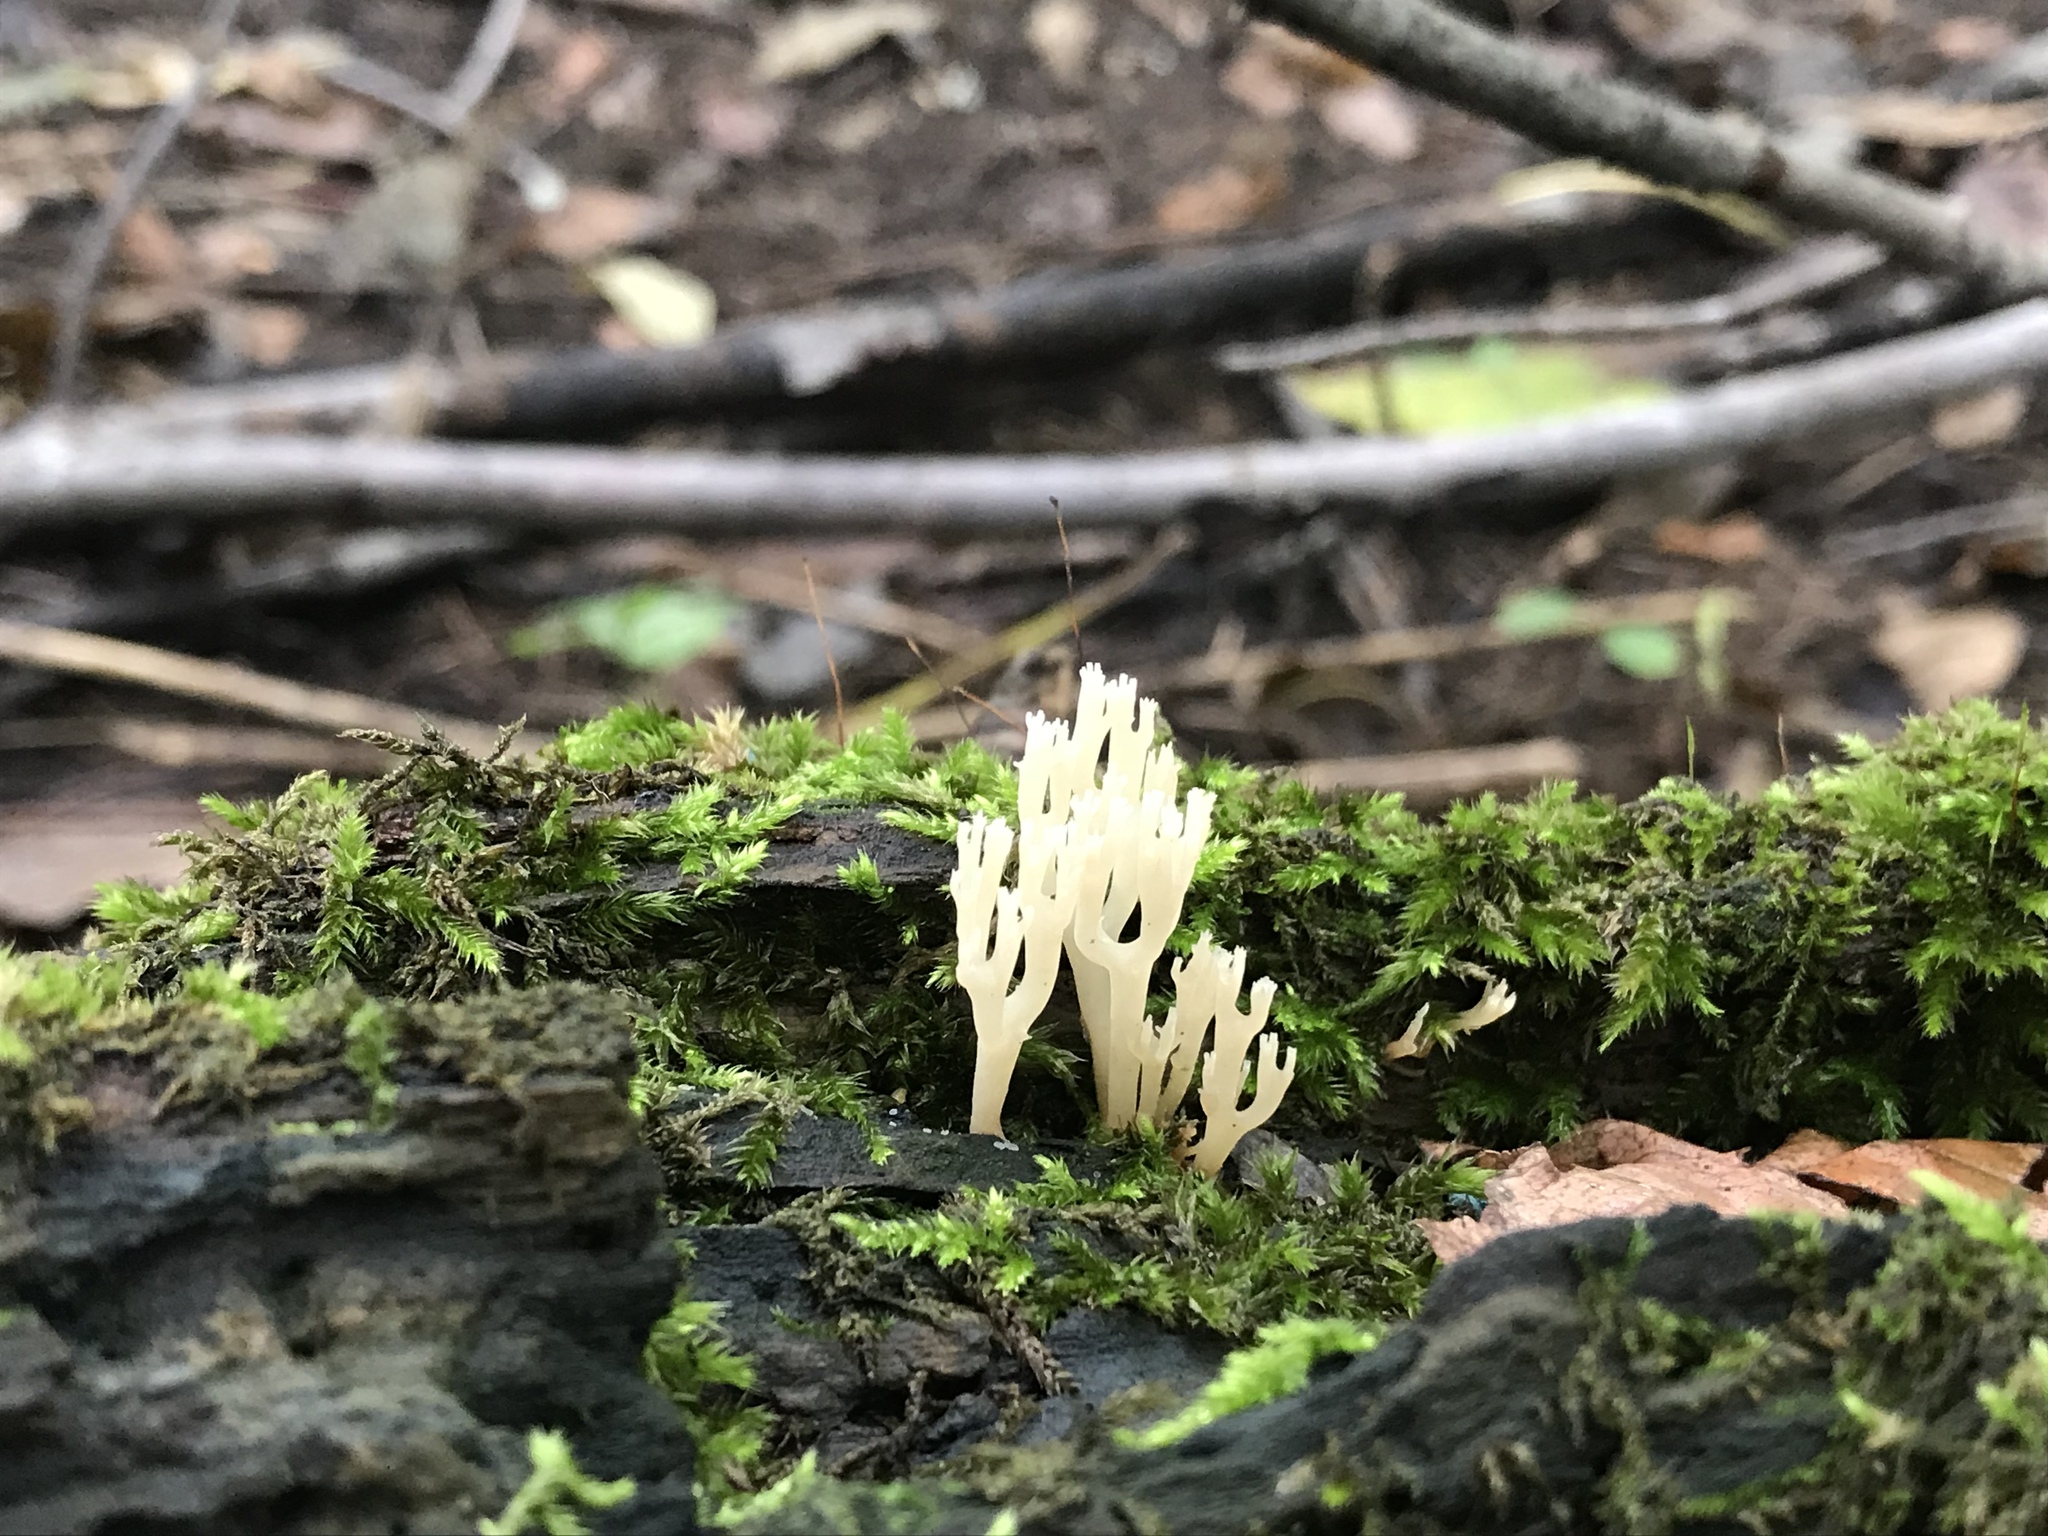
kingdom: Fungi
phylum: Basidiomycota
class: Agaricomycetes
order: Russulales
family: Auriscalpiaceae
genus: Artomyces
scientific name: Artomyces pyxidatus
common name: Crown-tipped coral fungus
